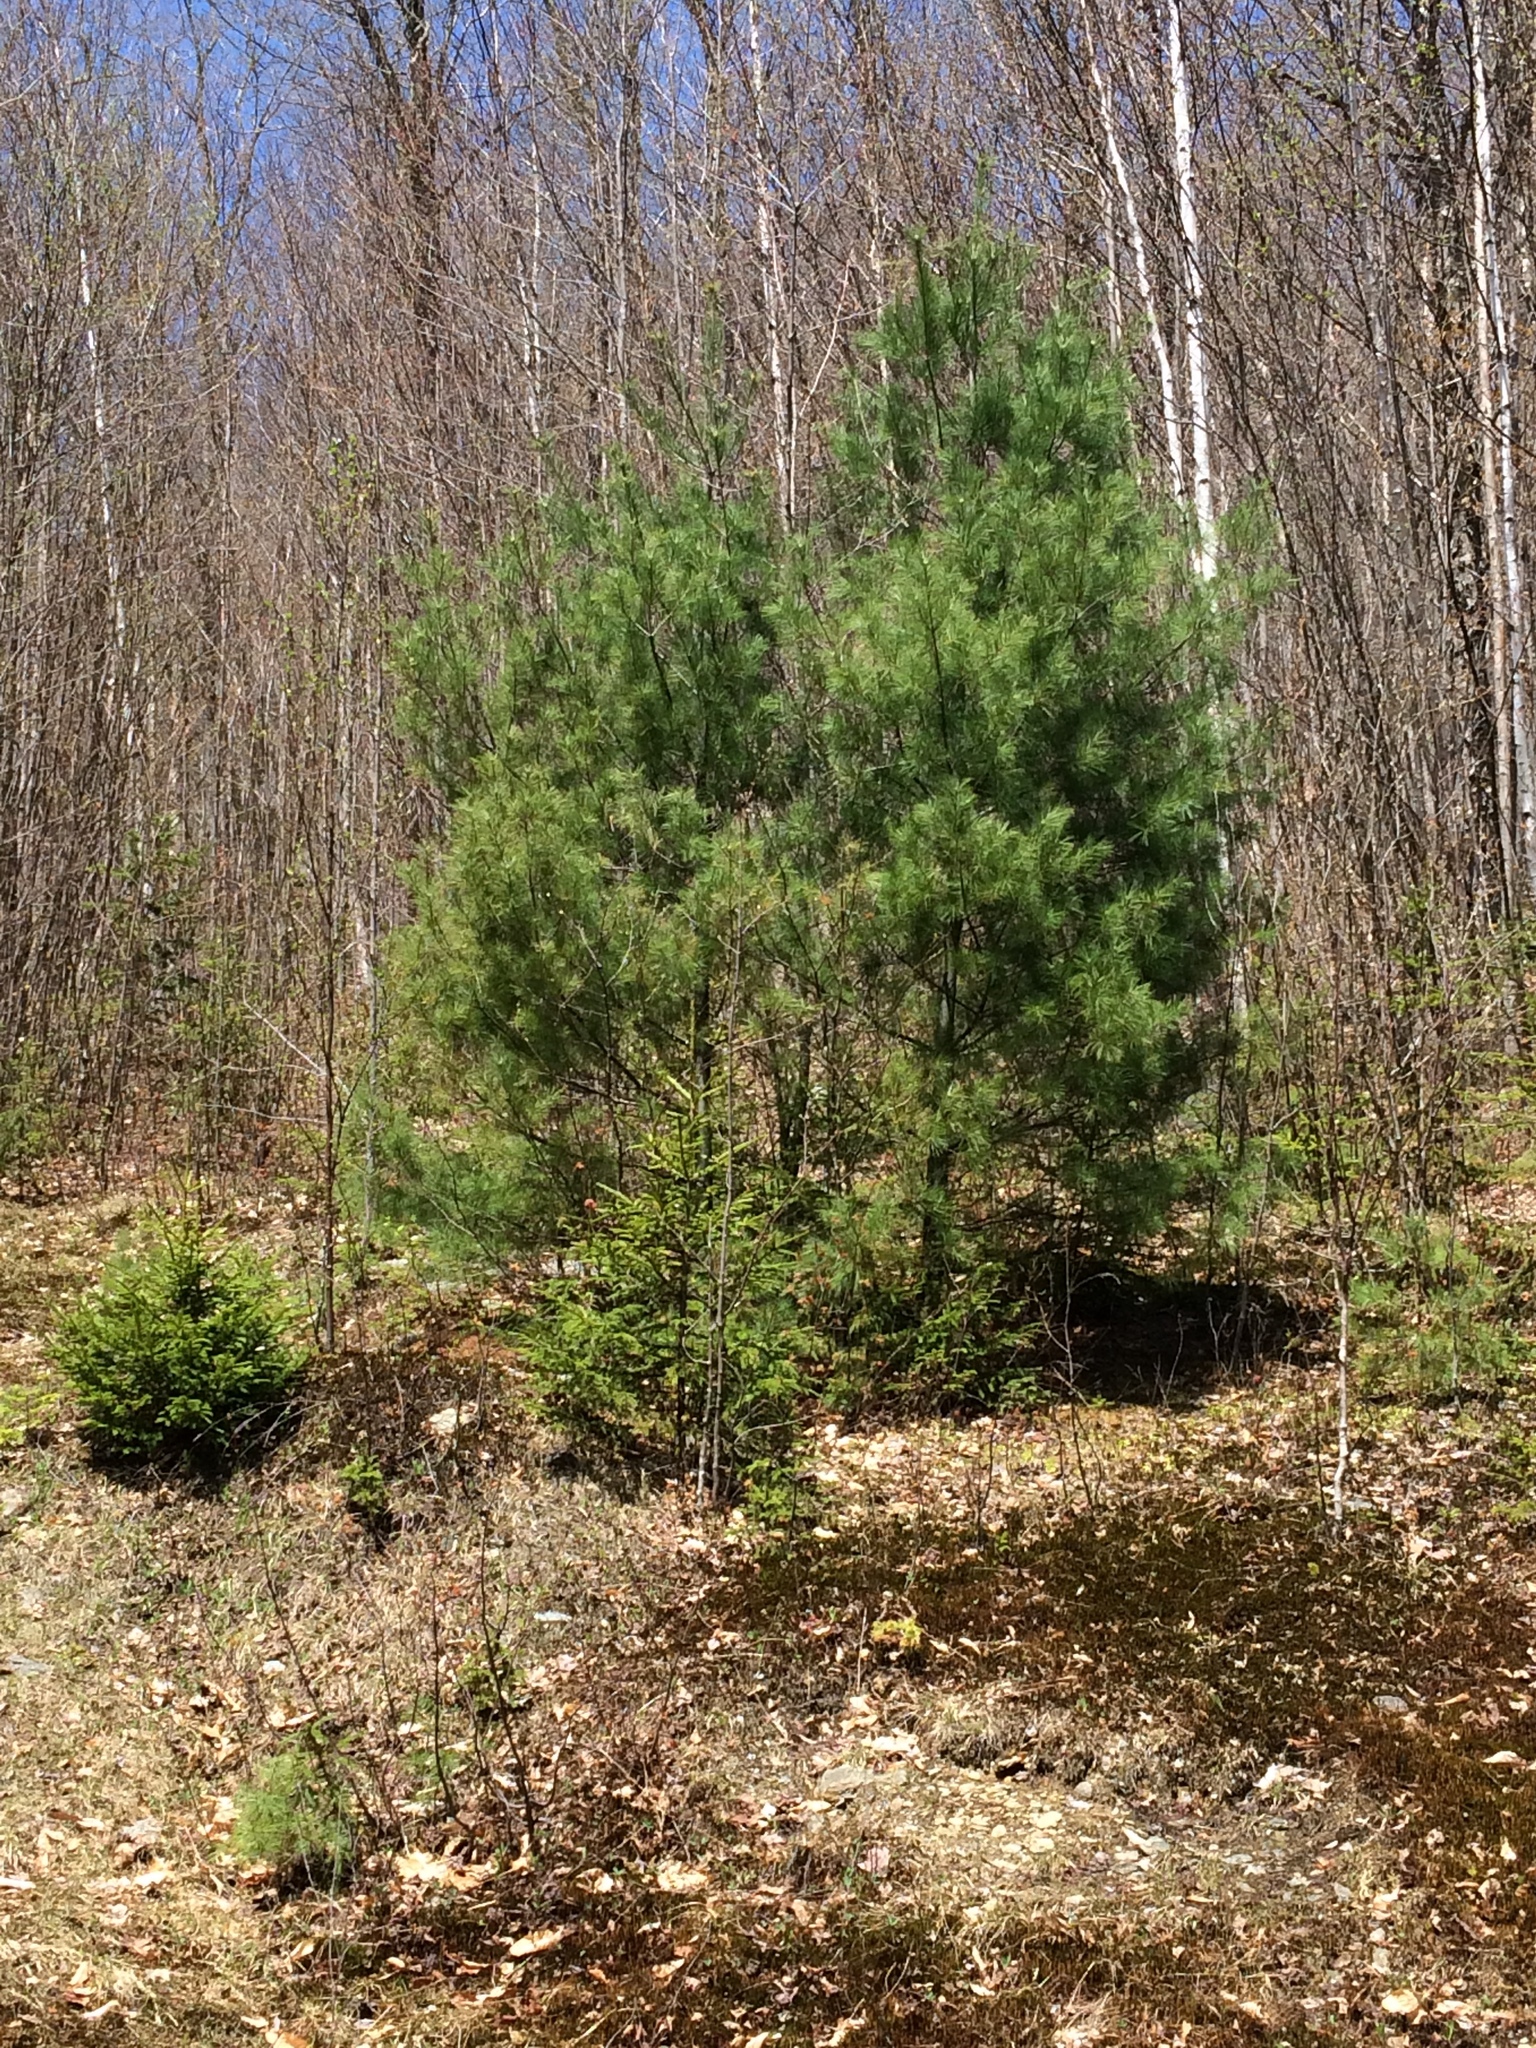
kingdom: Plantae
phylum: Tracheophyta
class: Pinopsida
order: Pinales
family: Pinaceae
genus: Pinus
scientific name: Pinus strobus
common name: Weymouth pine
